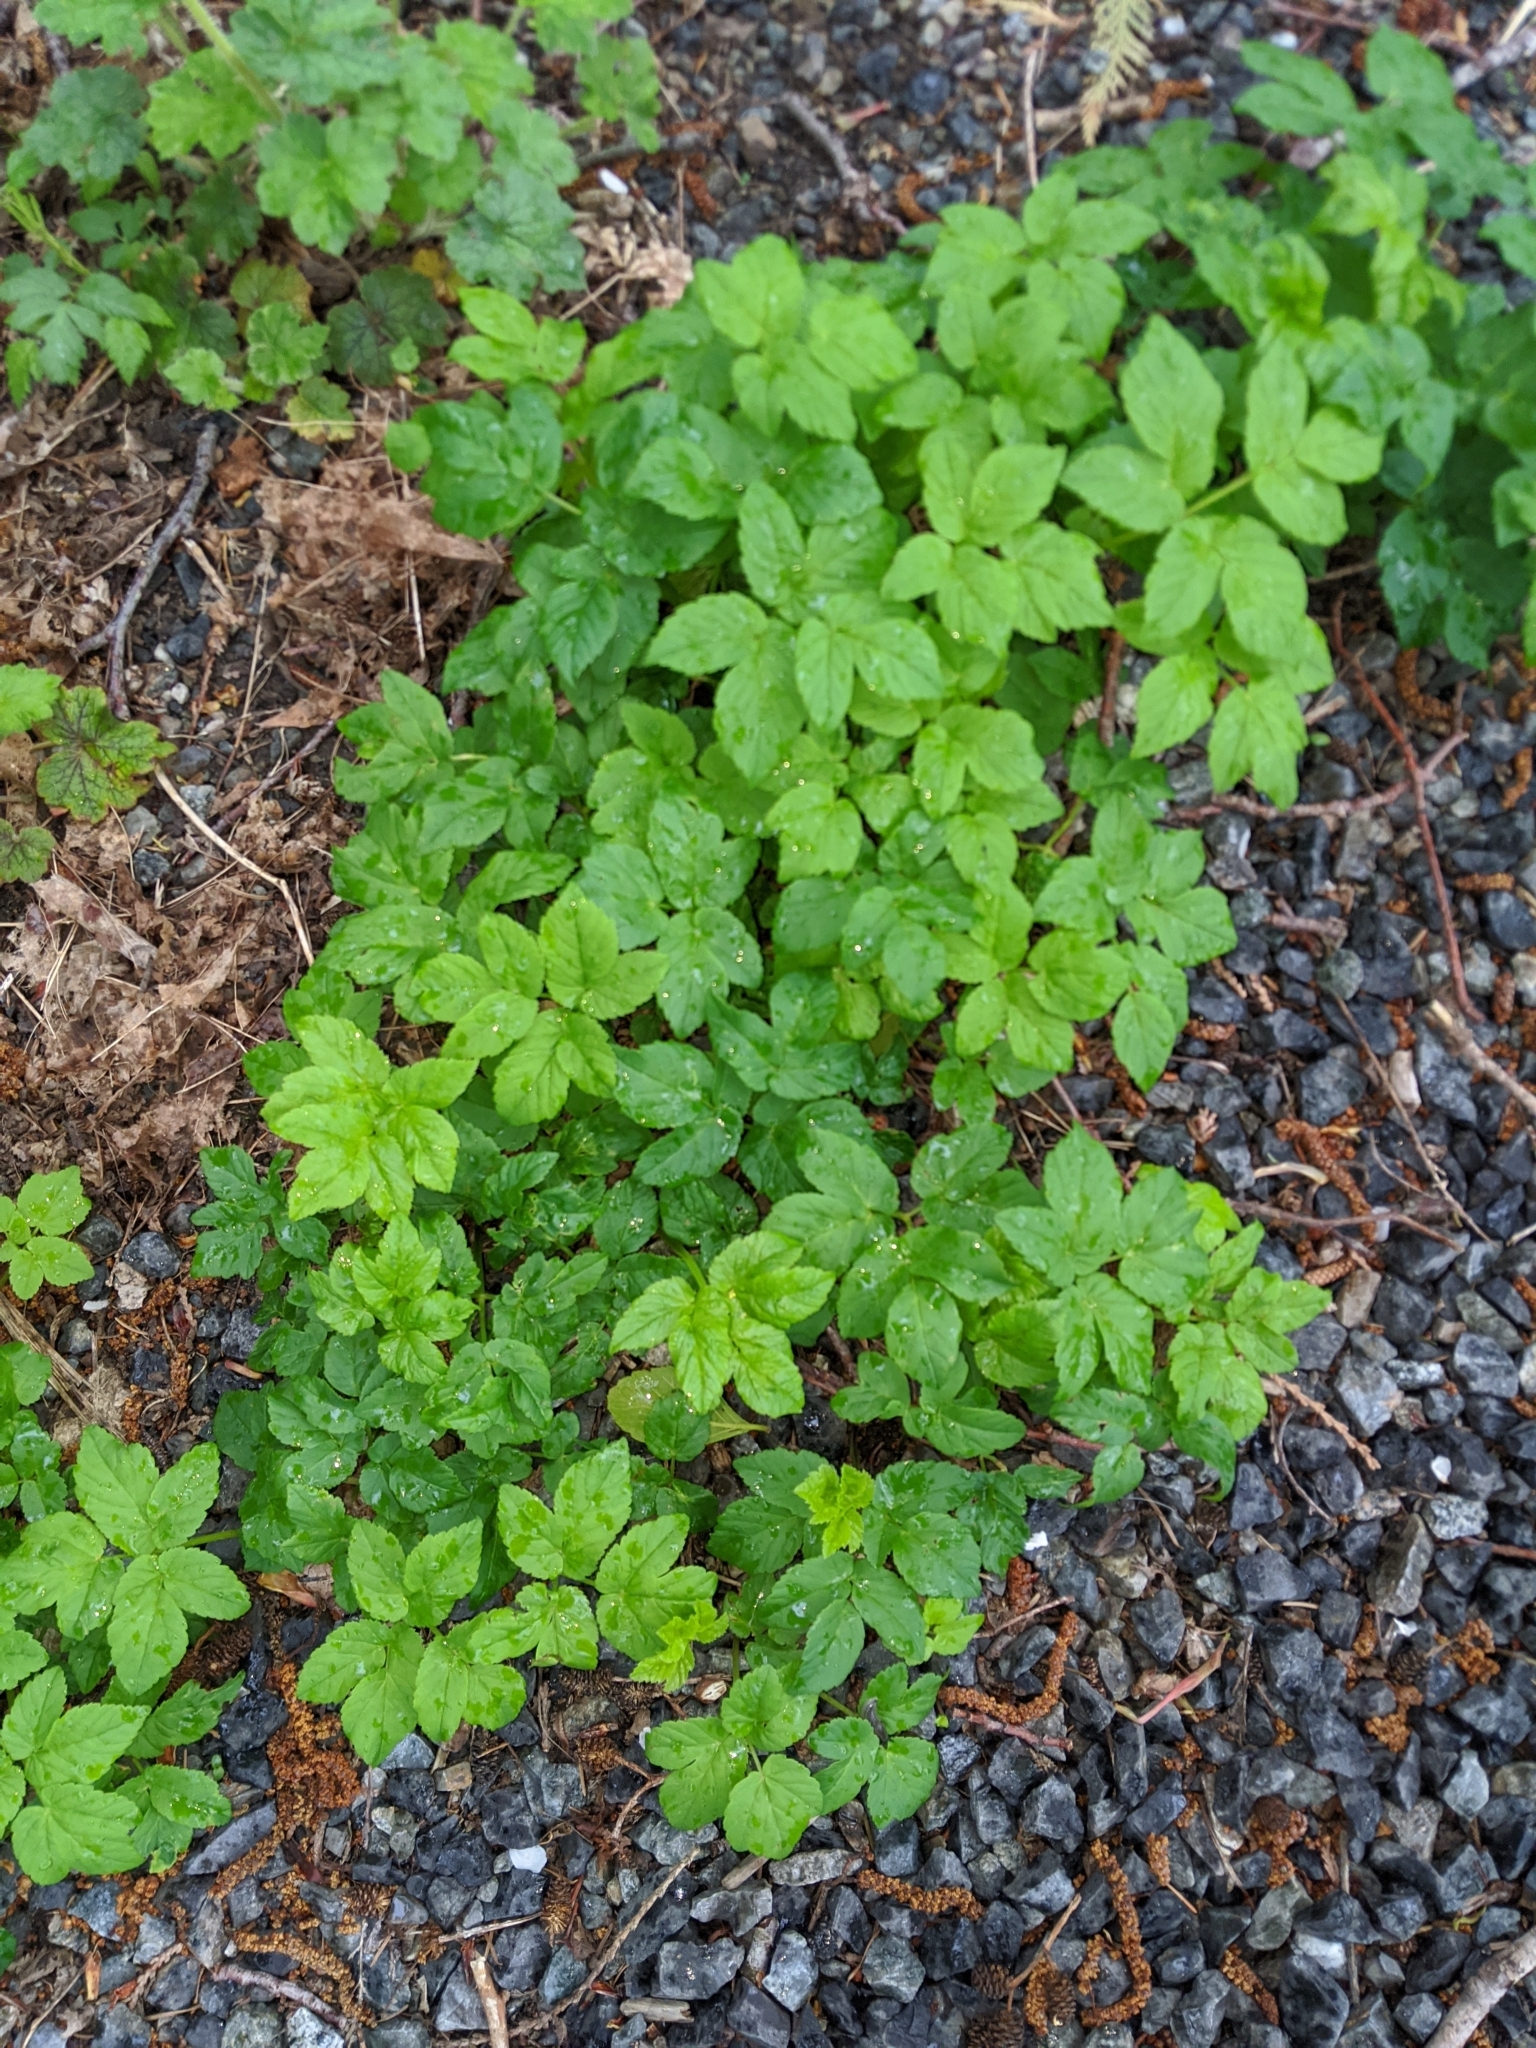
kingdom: Plantae
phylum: Tracheophyta
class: Magnoliopsida
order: Apiales
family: Apiaceae
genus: Aegopodium
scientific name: Aegopodium podagraria
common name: Ground-elder
